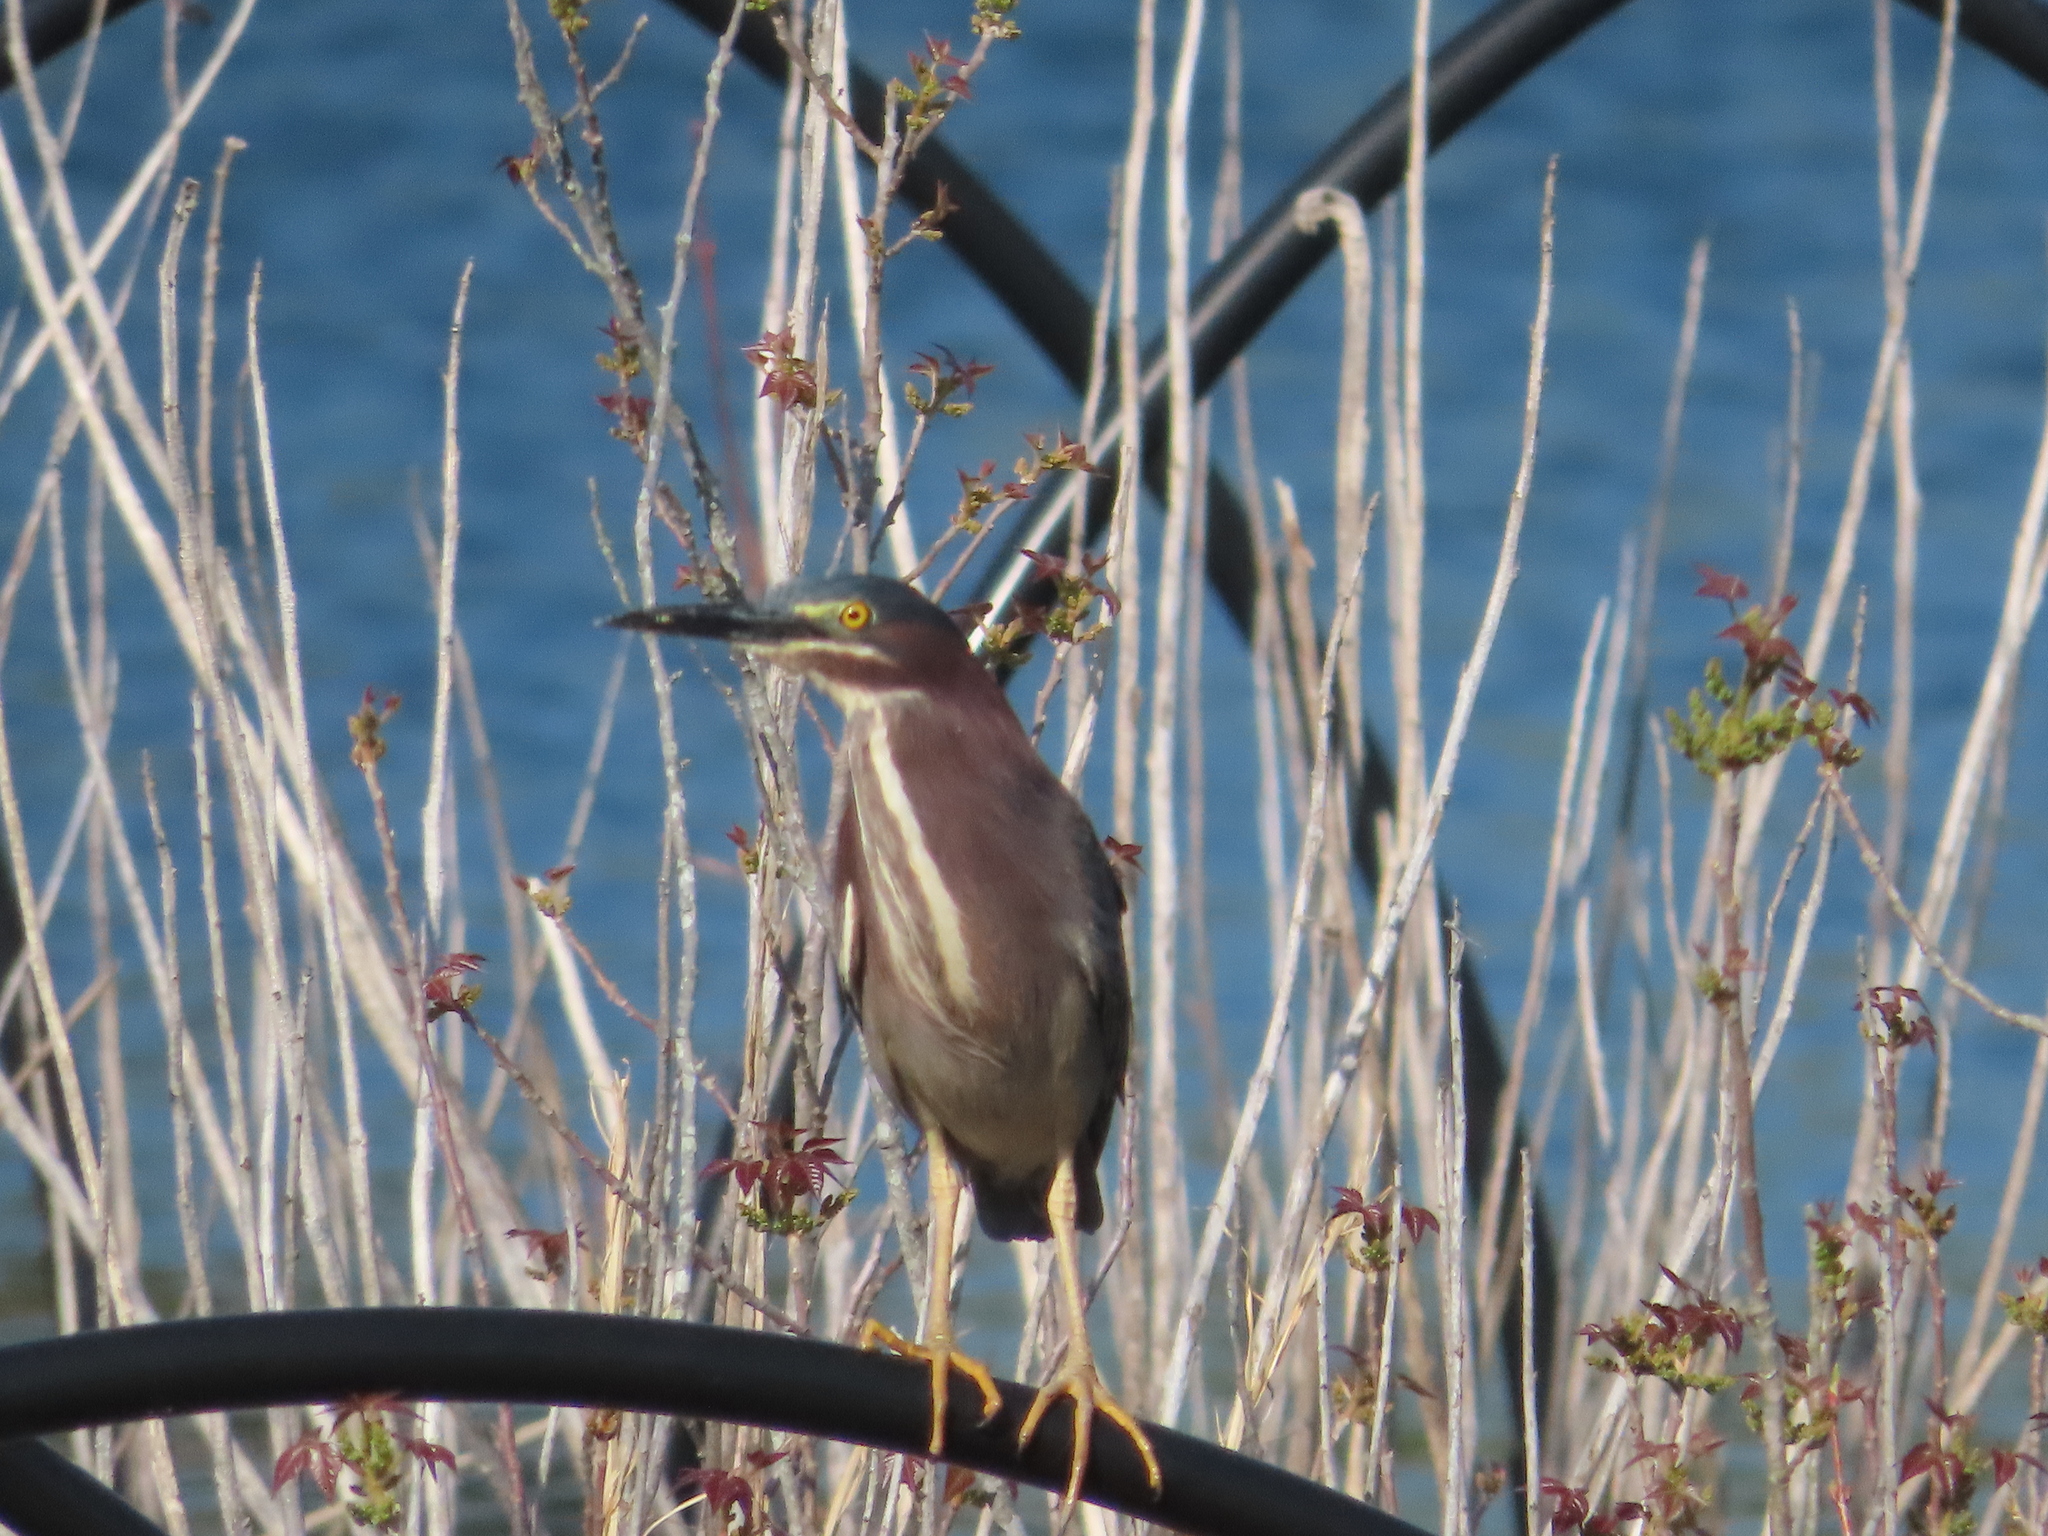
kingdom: Animalia
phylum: Chordata
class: Aves
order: Pelecaniformes
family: Ardeidae
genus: Butorides
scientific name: Butorides virescens
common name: Green heron
